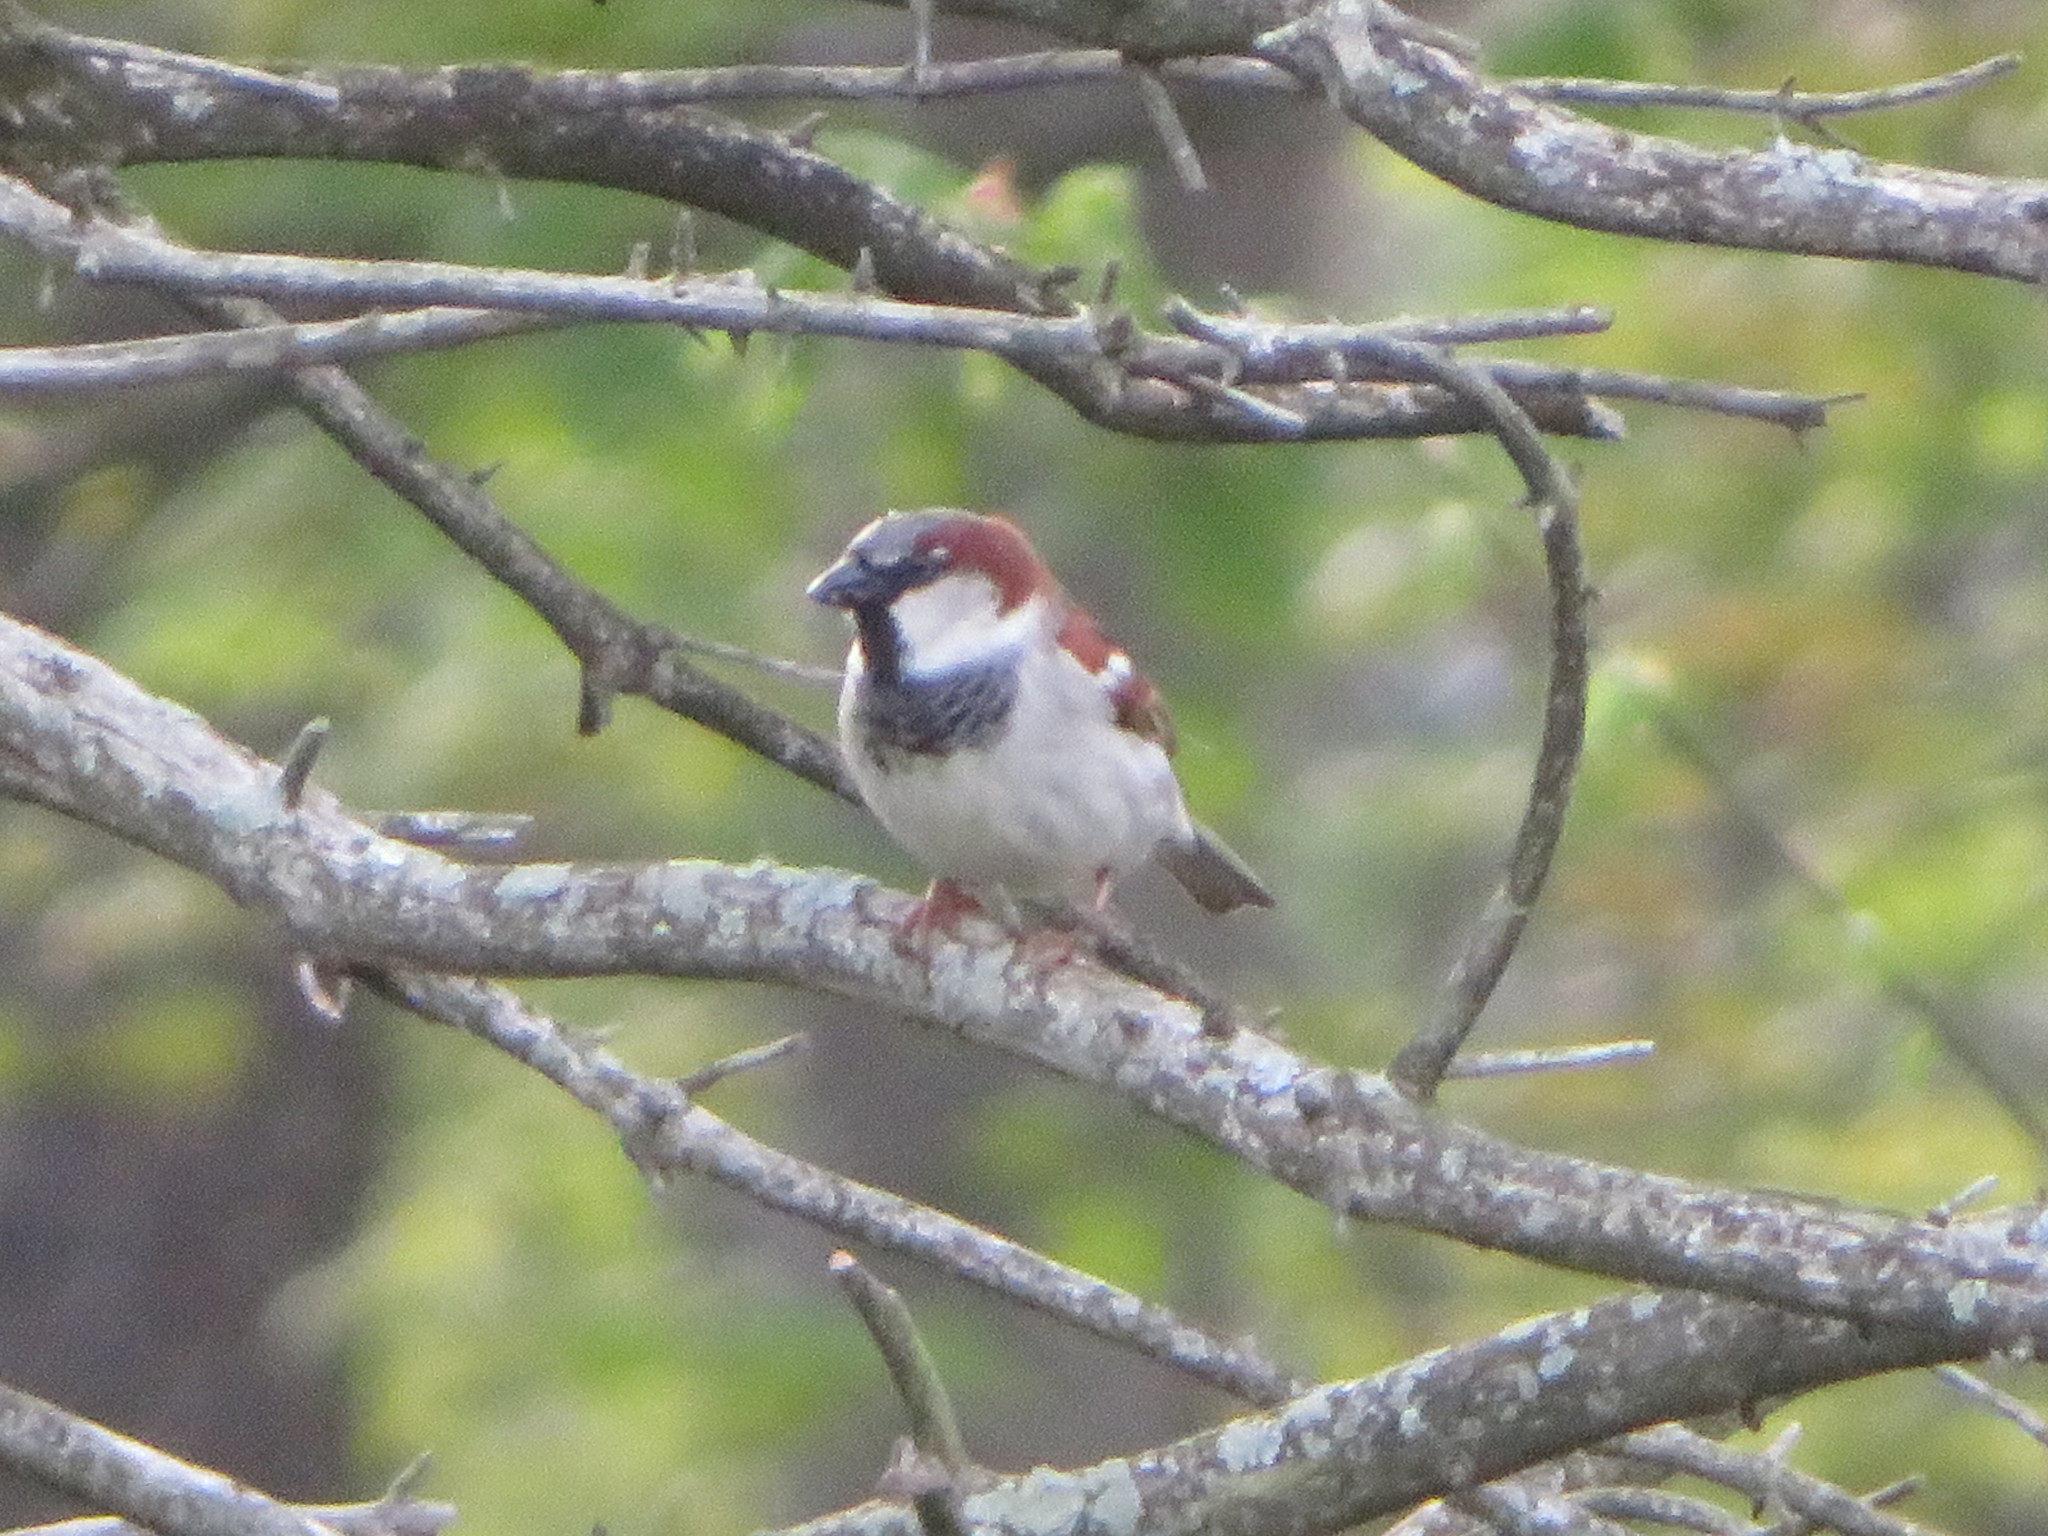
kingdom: Animalia
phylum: Chordata
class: Aves
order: Passeriformes
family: Passeridae
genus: Passer
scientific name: Passer domesticus
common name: House sparrow
